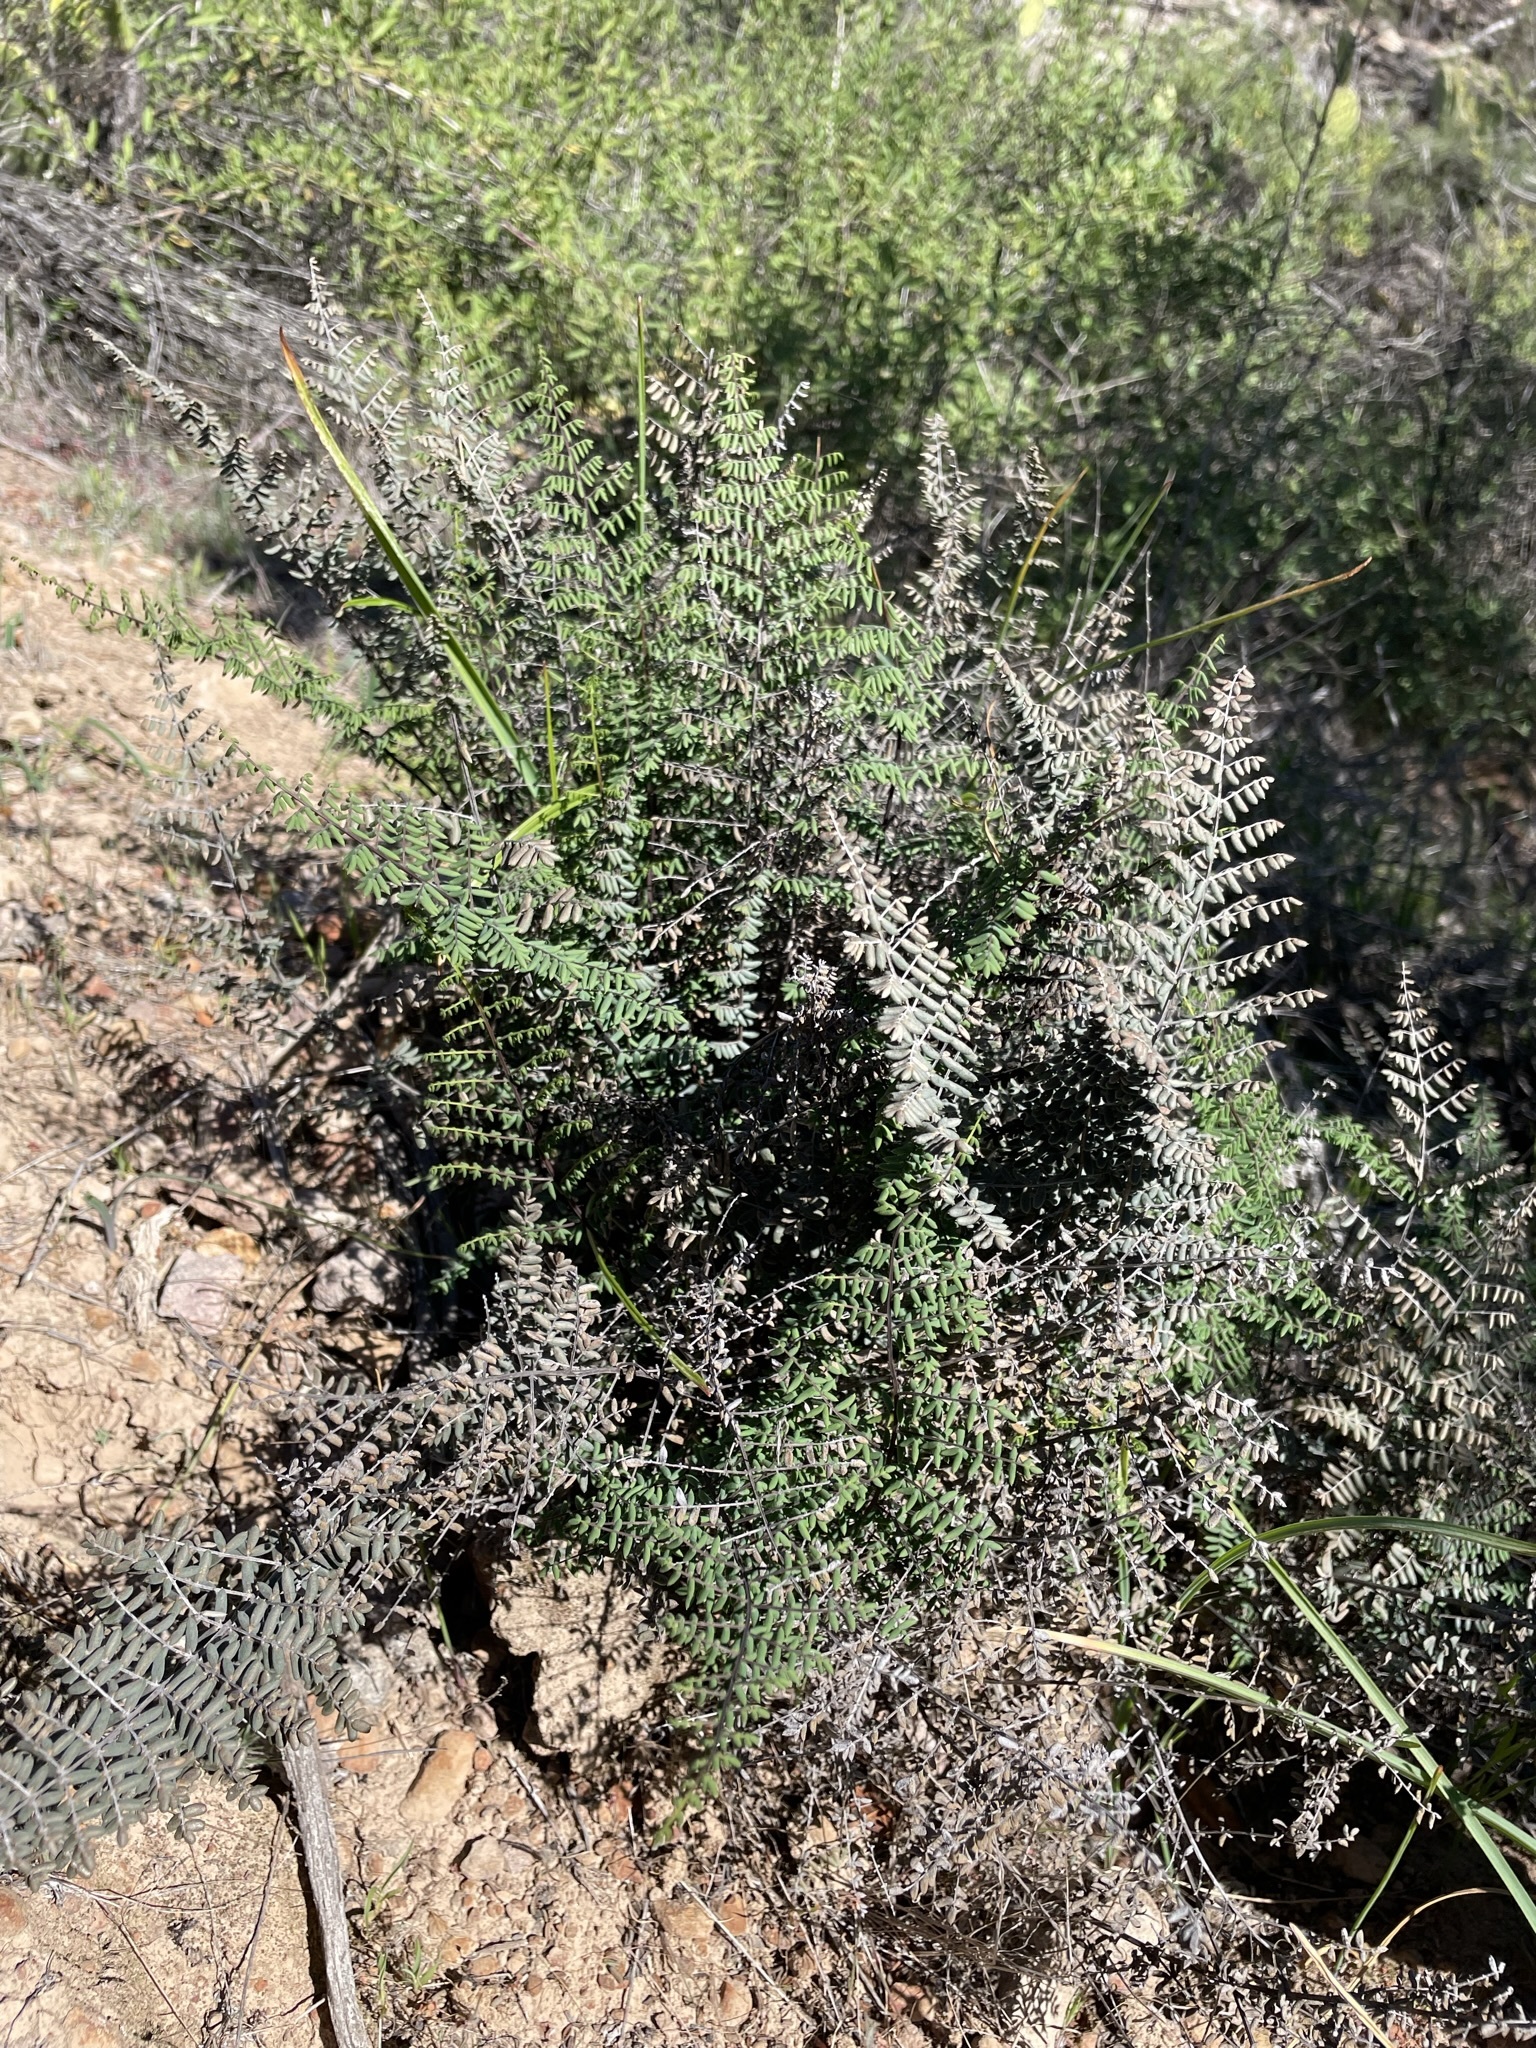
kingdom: Plantae
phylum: Tracheophyta
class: Polypodiopsida
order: Polypodiales
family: Pteridaceae
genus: Pellaea
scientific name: Pellaea mucronata
